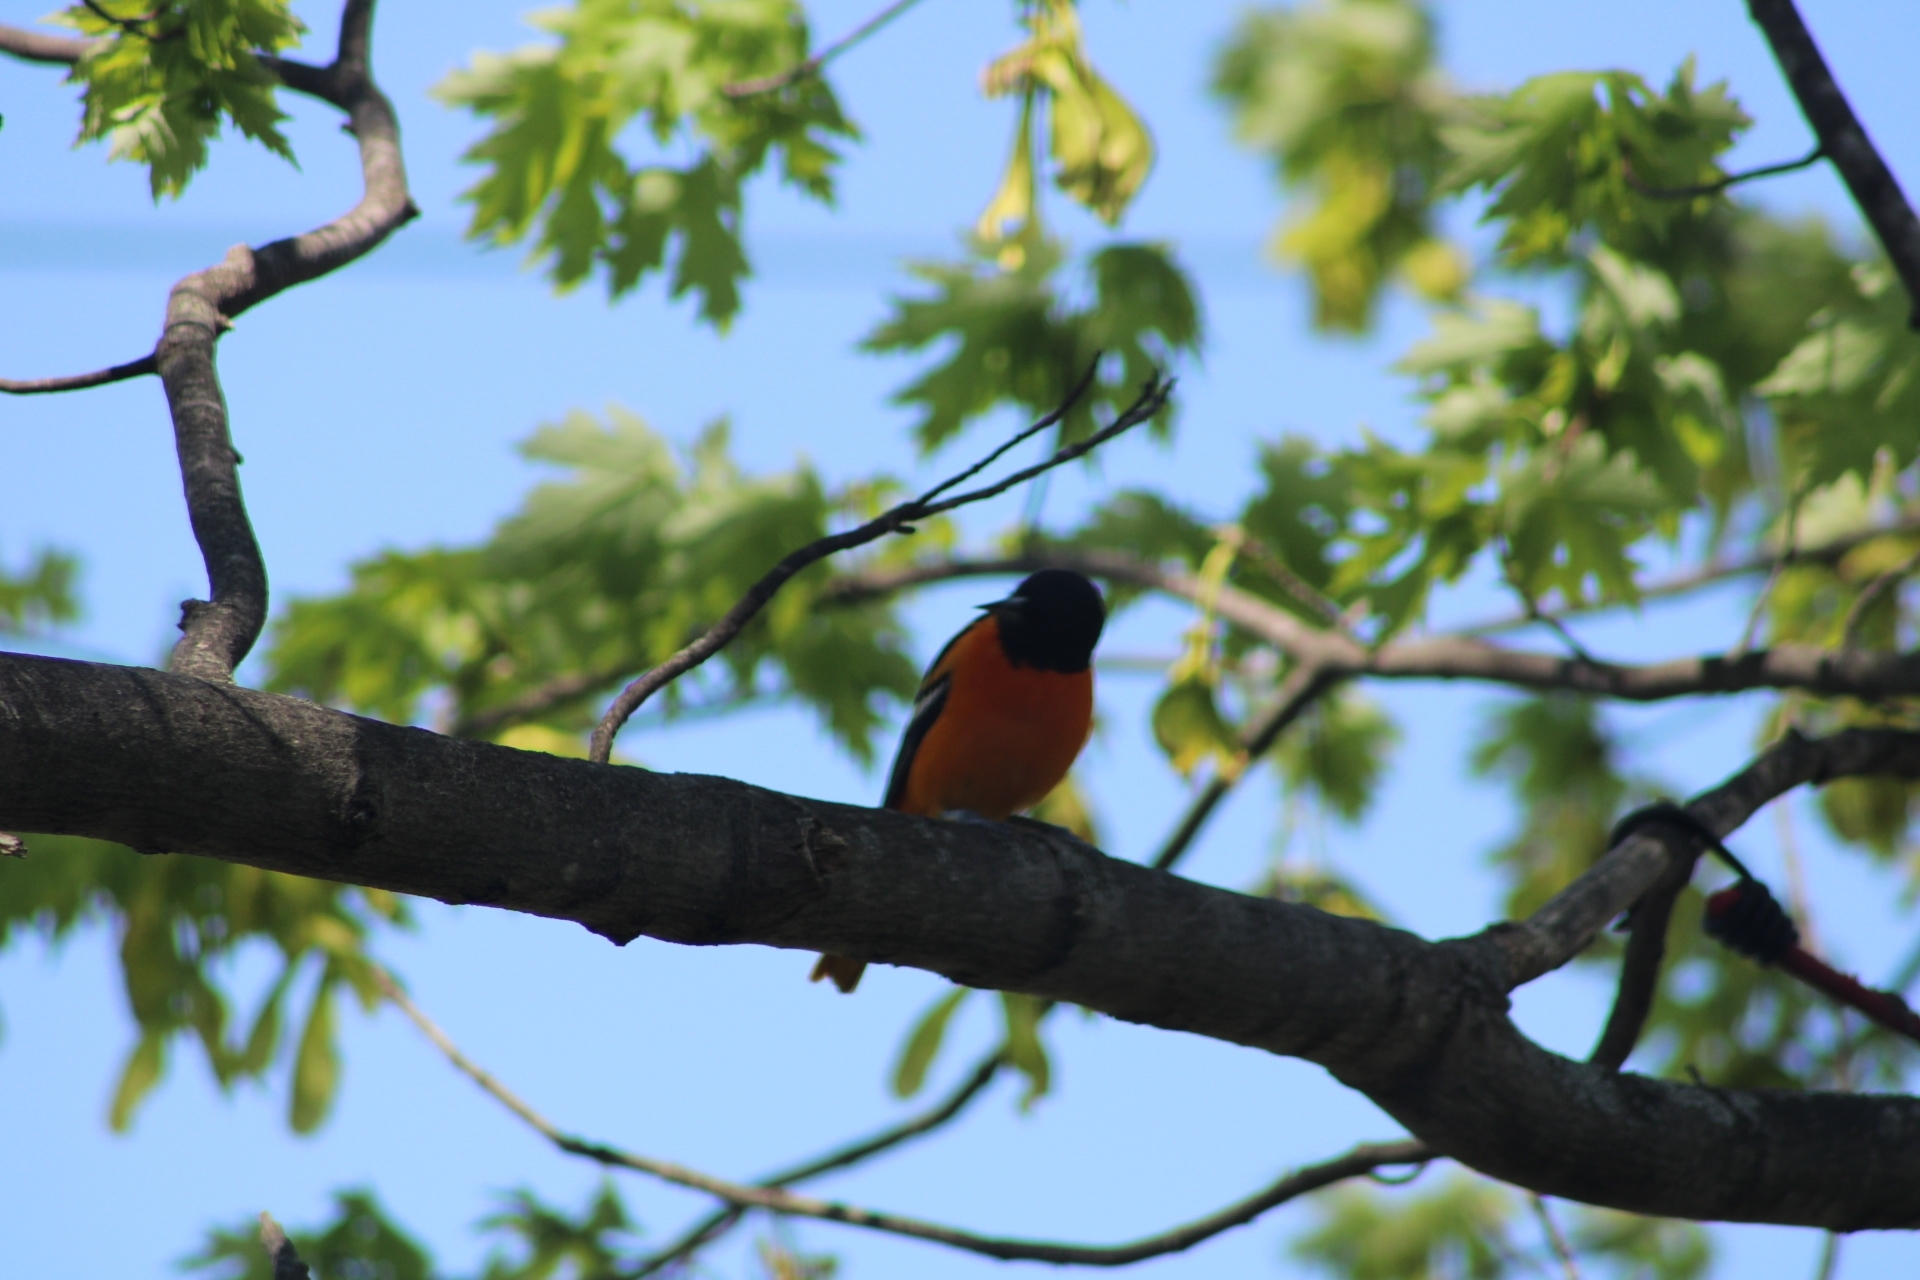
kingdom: Animalia
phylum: Chordata
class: Aves
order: Passeriformes
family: Icteridae
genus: Icterus
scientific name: Icterus galbula
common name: Baltimore oriole
